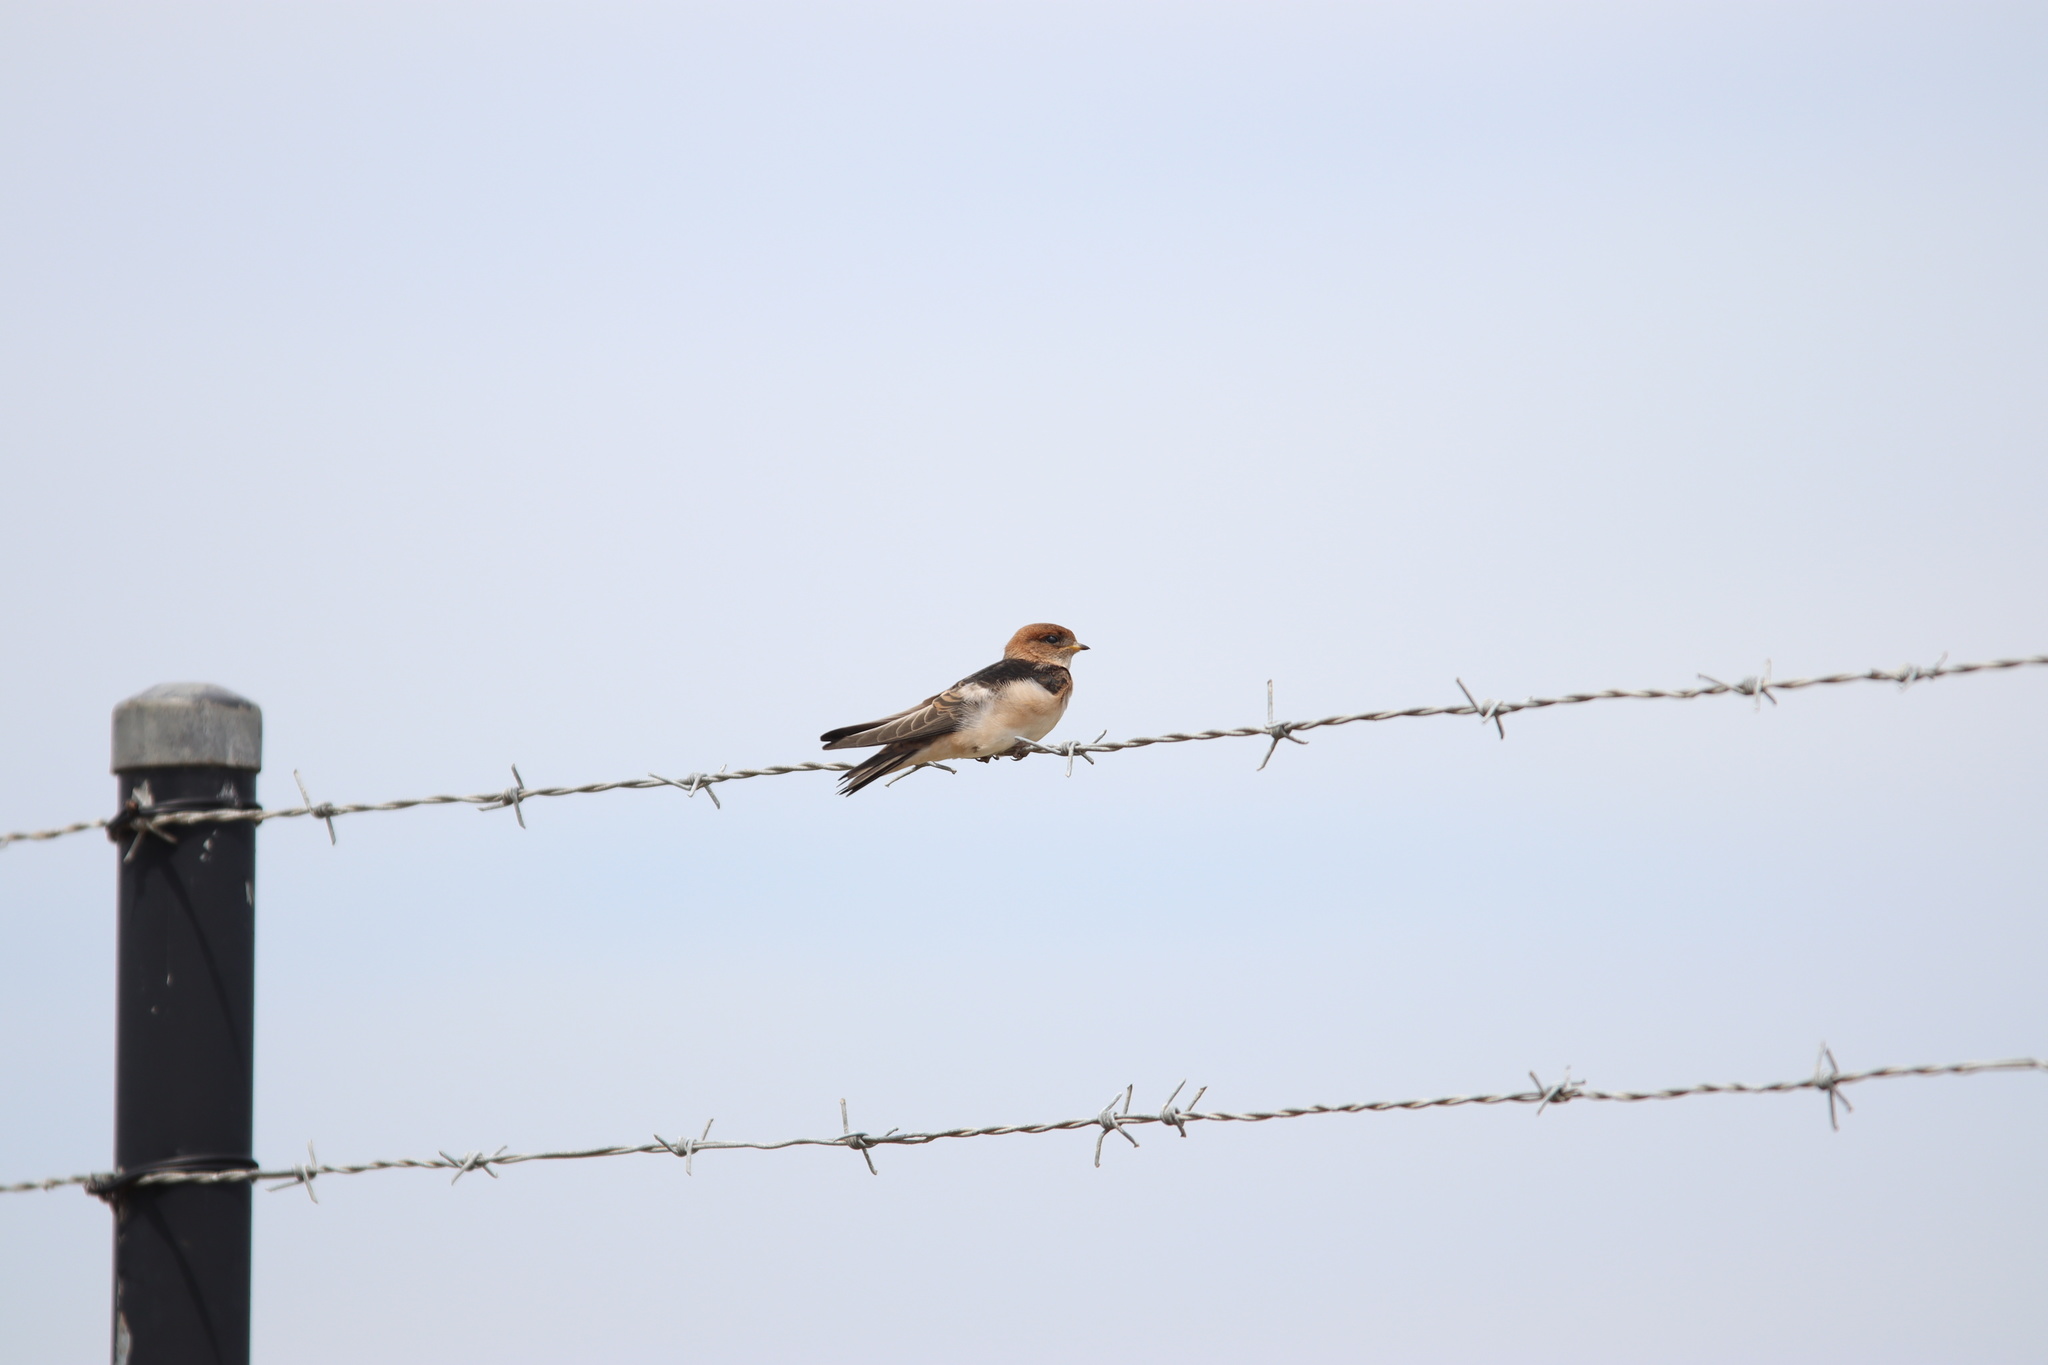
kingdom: Animalia
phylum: Chordata
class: Aves
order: Passeriformes
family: Hirundinidae
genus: Petrochelidon
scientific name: Petrochelidon ariel
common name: Fairy martin
